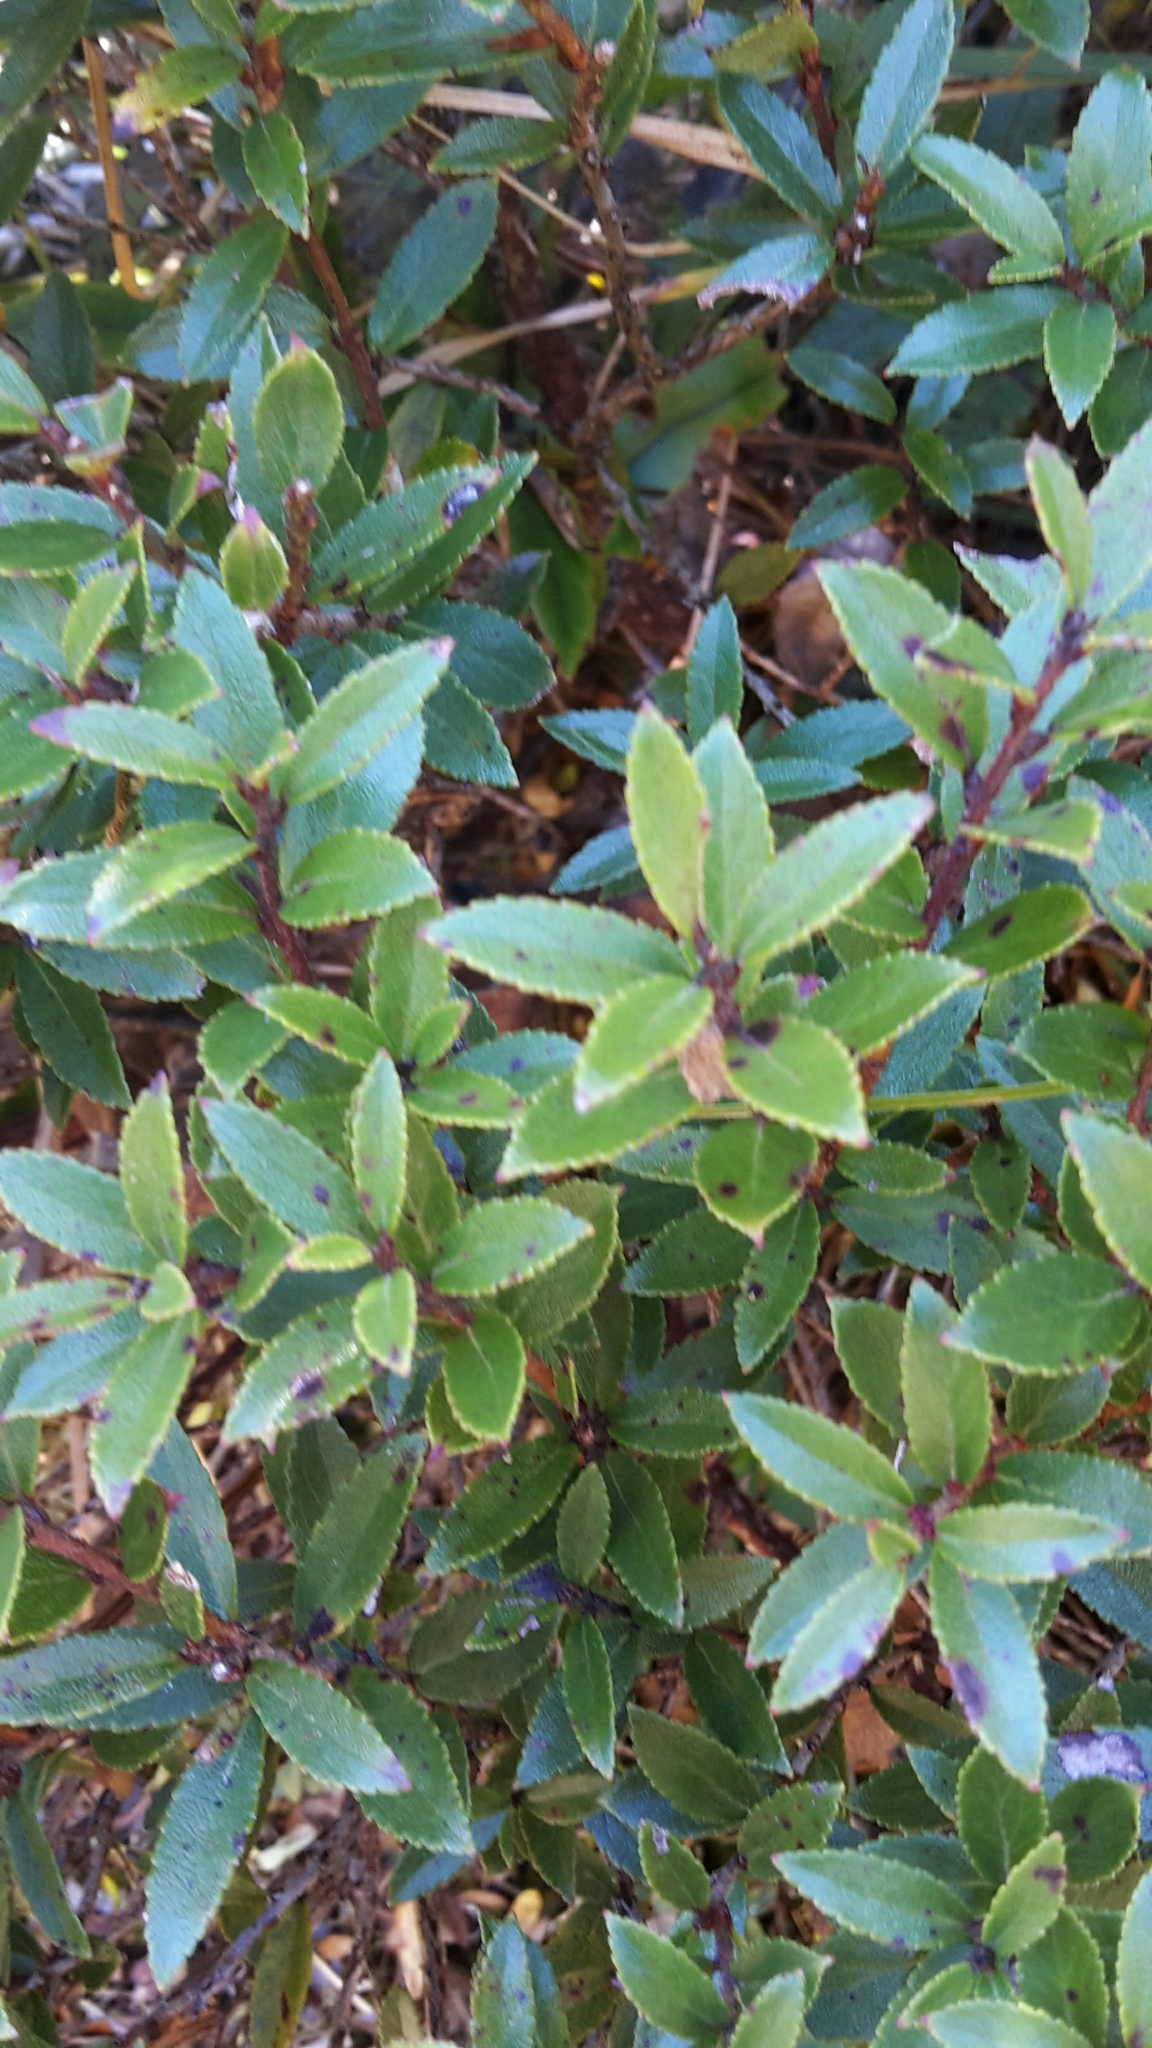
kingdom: Plantae
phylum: Tracheophyta
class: Magnoliopsida
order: Ericales
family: Ericaceae
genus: Gaultheria
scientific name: Gaultheria rupestris
